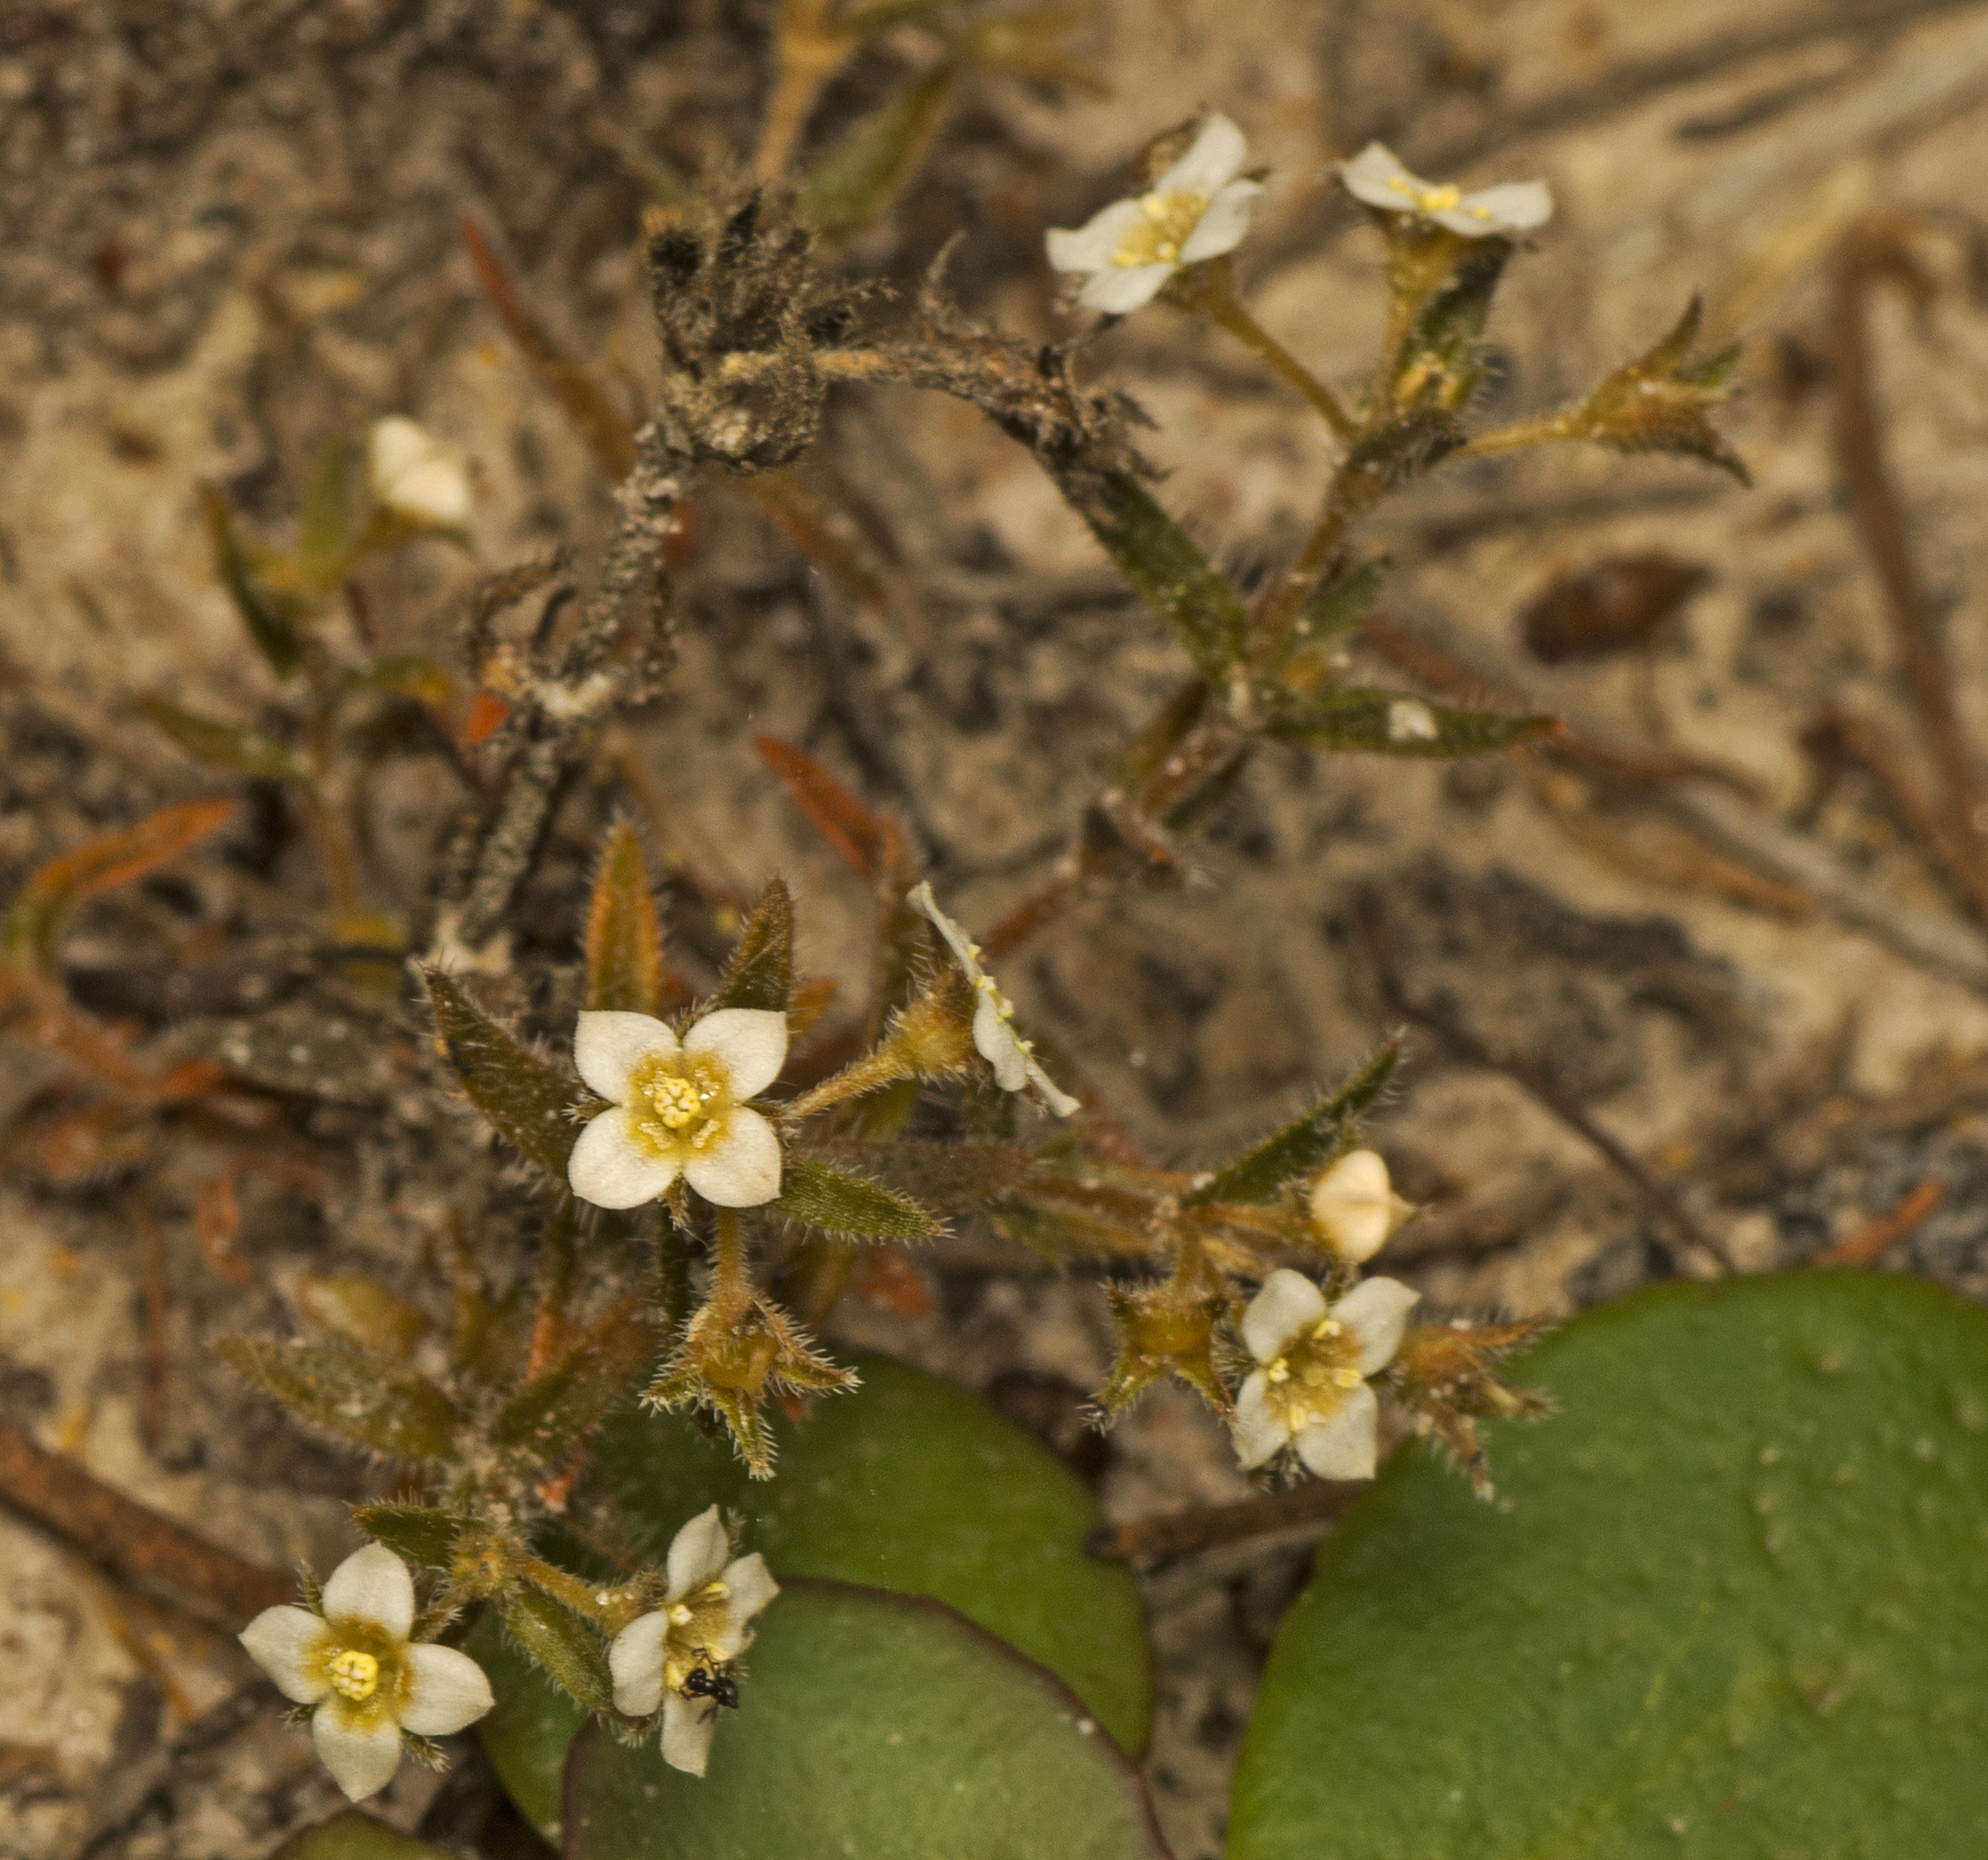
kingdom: Plantae
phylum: Tracheophyta
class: Magnoliopsida
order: Gentianales
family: Loganiaceae
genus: Mitrasacme
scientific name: Mitrasacme paludosa
